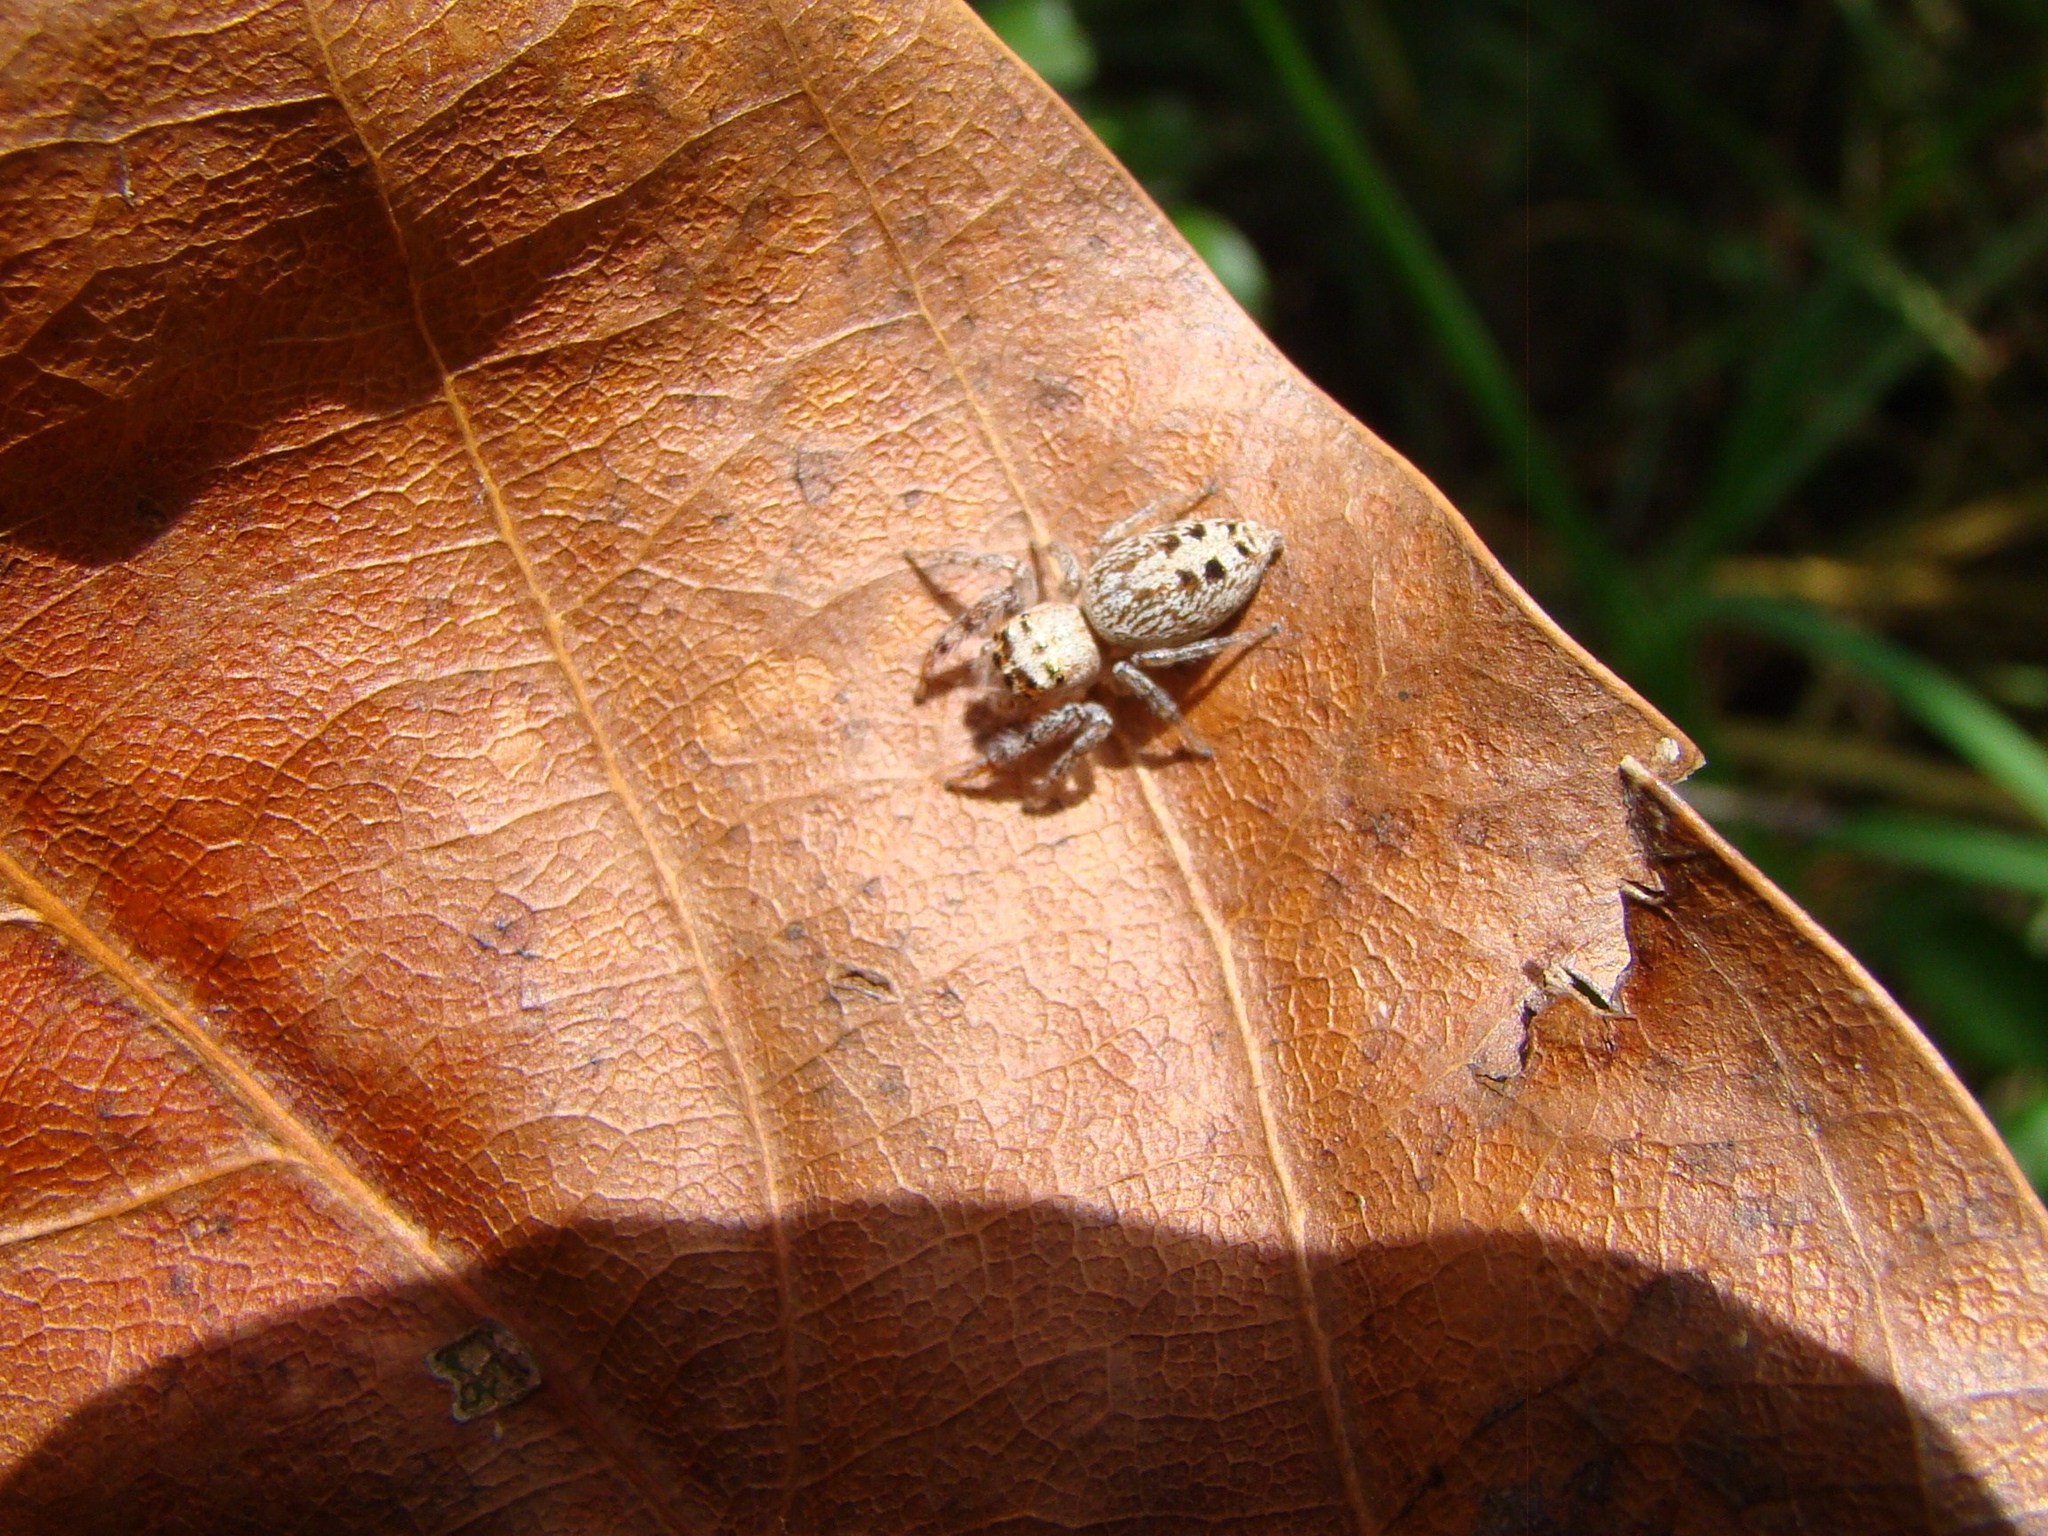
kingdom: Animalia
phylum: Arthropoda
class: Arachnida
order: Araneae
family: Salticidae
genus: Opisthoncus
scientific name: Opisthoncus polyphemus
